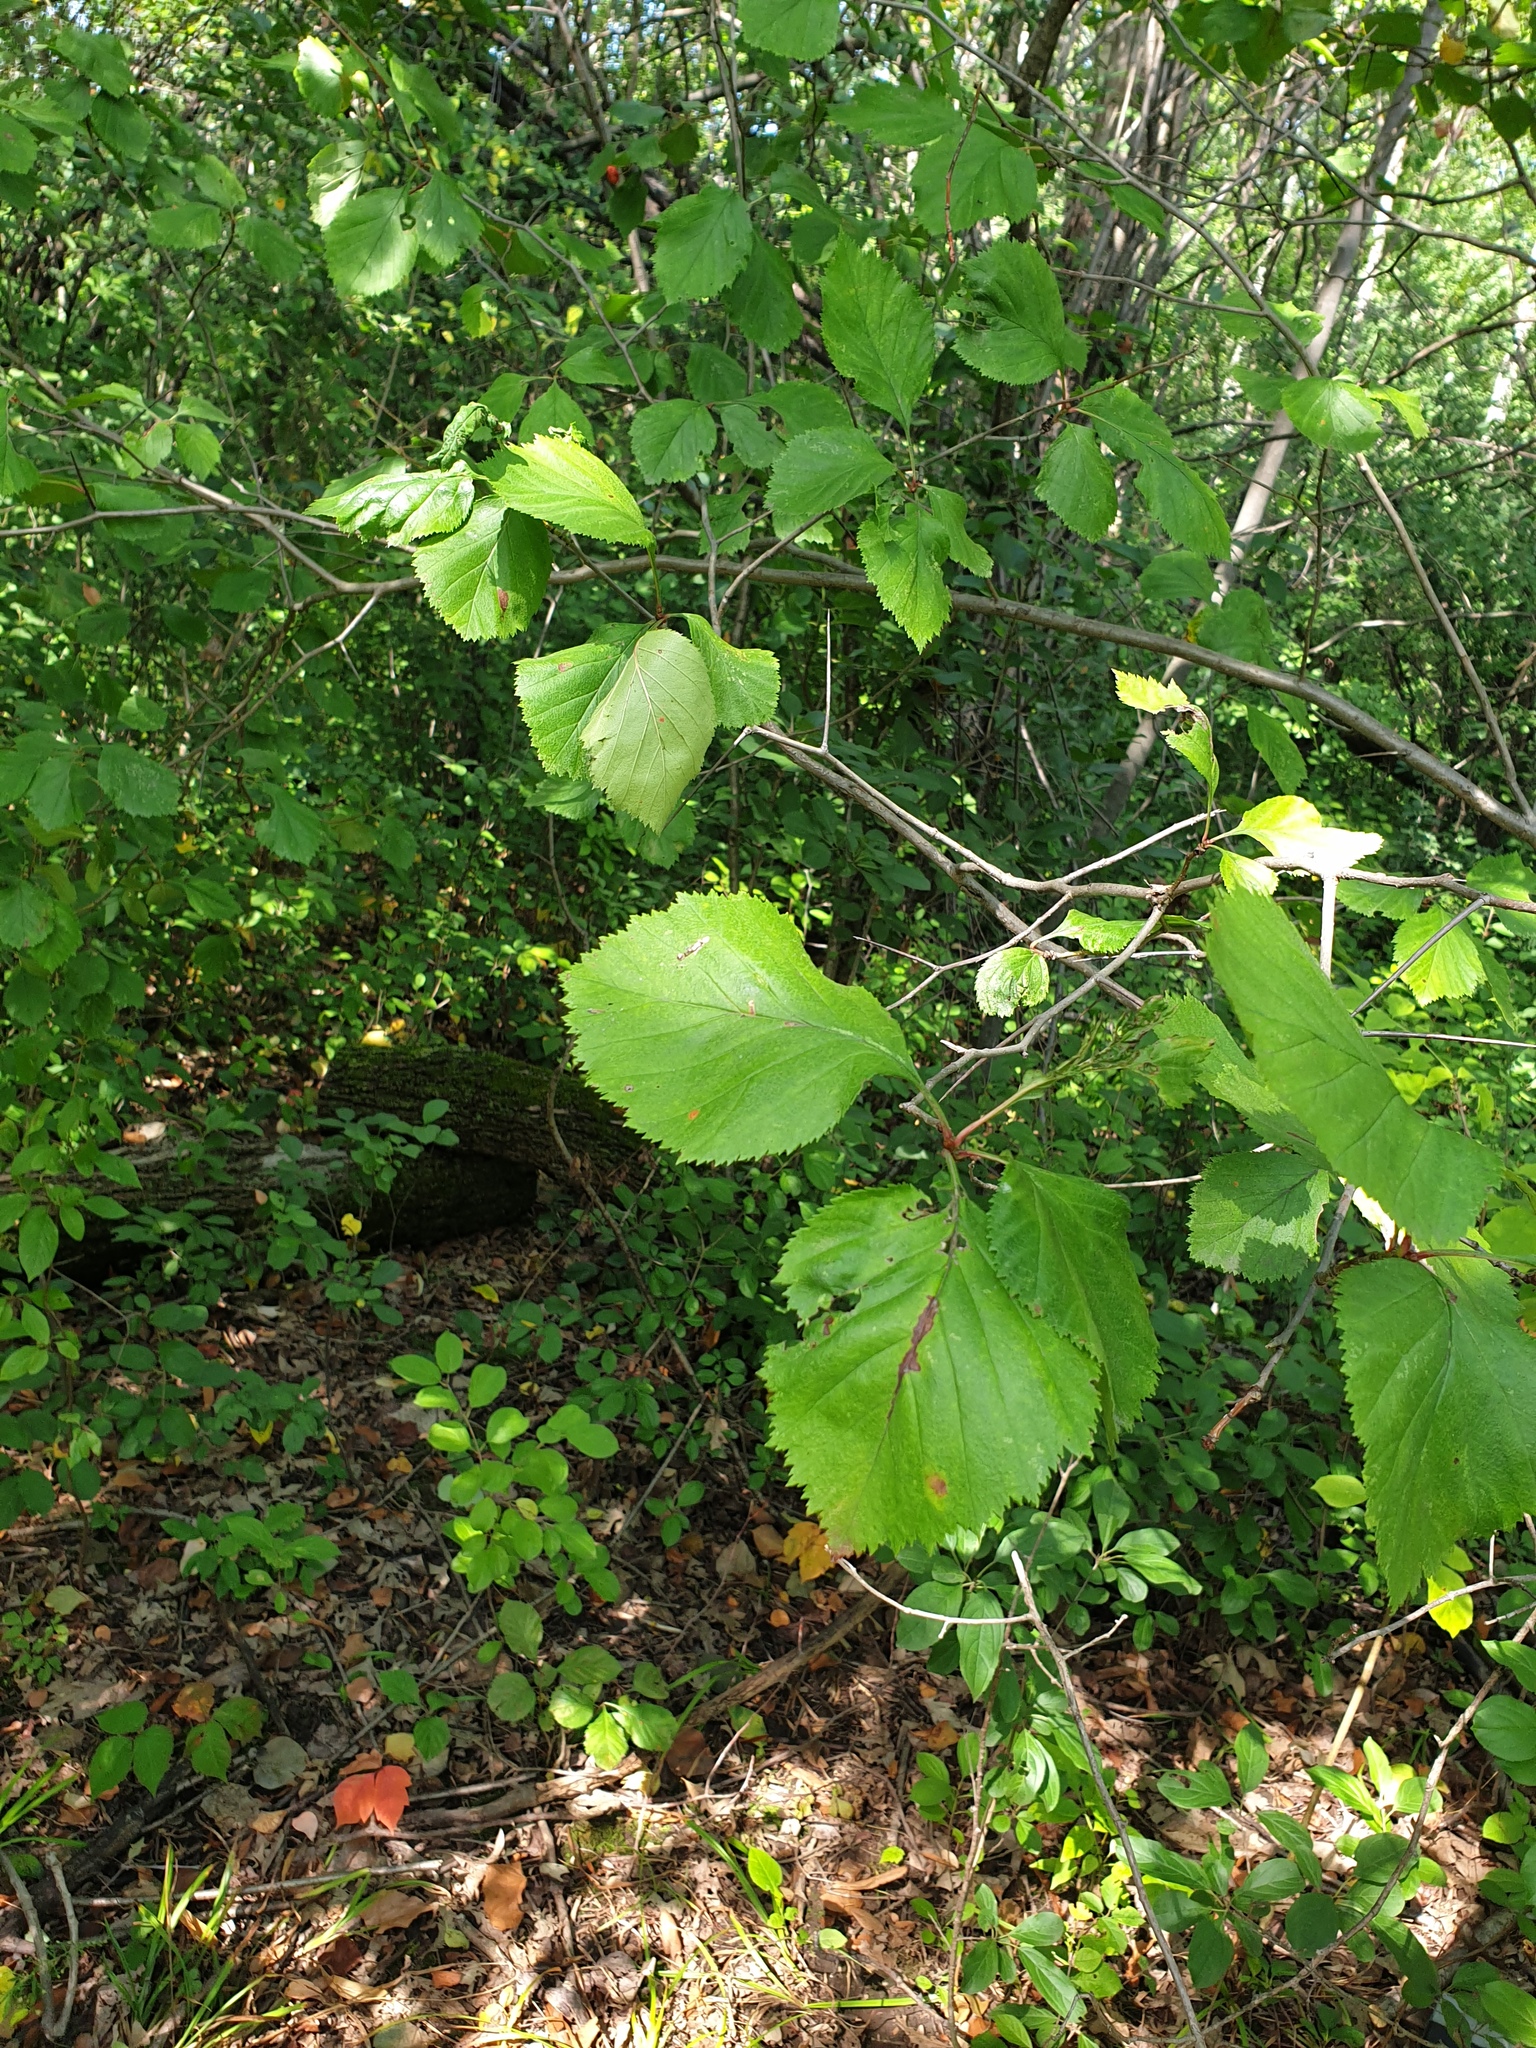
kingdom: Plantae
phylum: Tracheophyta
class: Magnoliopsida
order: Rosales
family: Rosaceae
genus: Crataegus
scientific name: Crataegus scabrida
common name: Rough hawthorn
